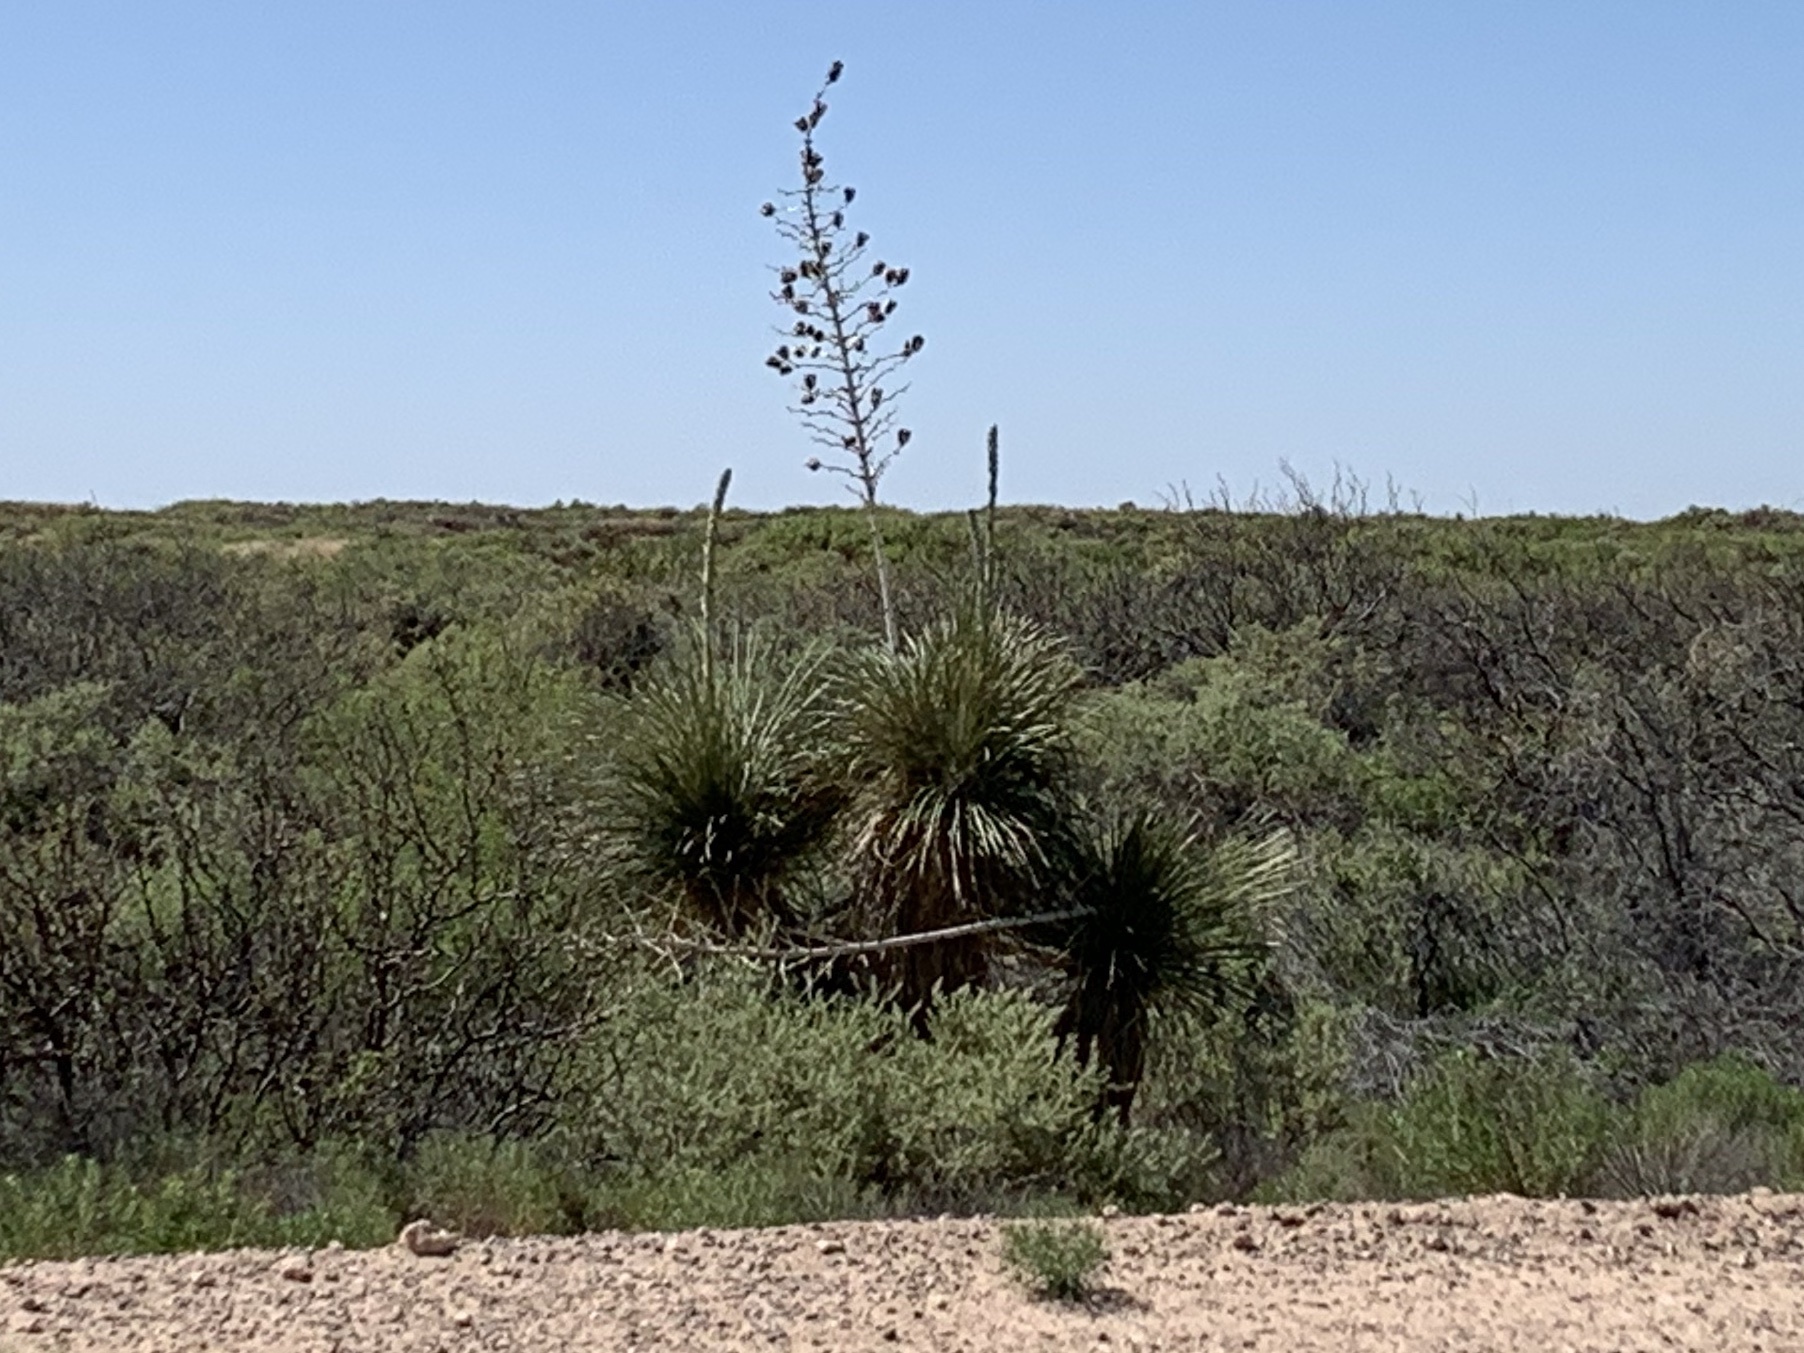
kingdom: Plantae
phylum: Tracheophyta
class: Liliopsida
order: Asparagales
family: Asparagaceae
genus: Yucca
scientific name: Yucca elata
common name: Palmella
